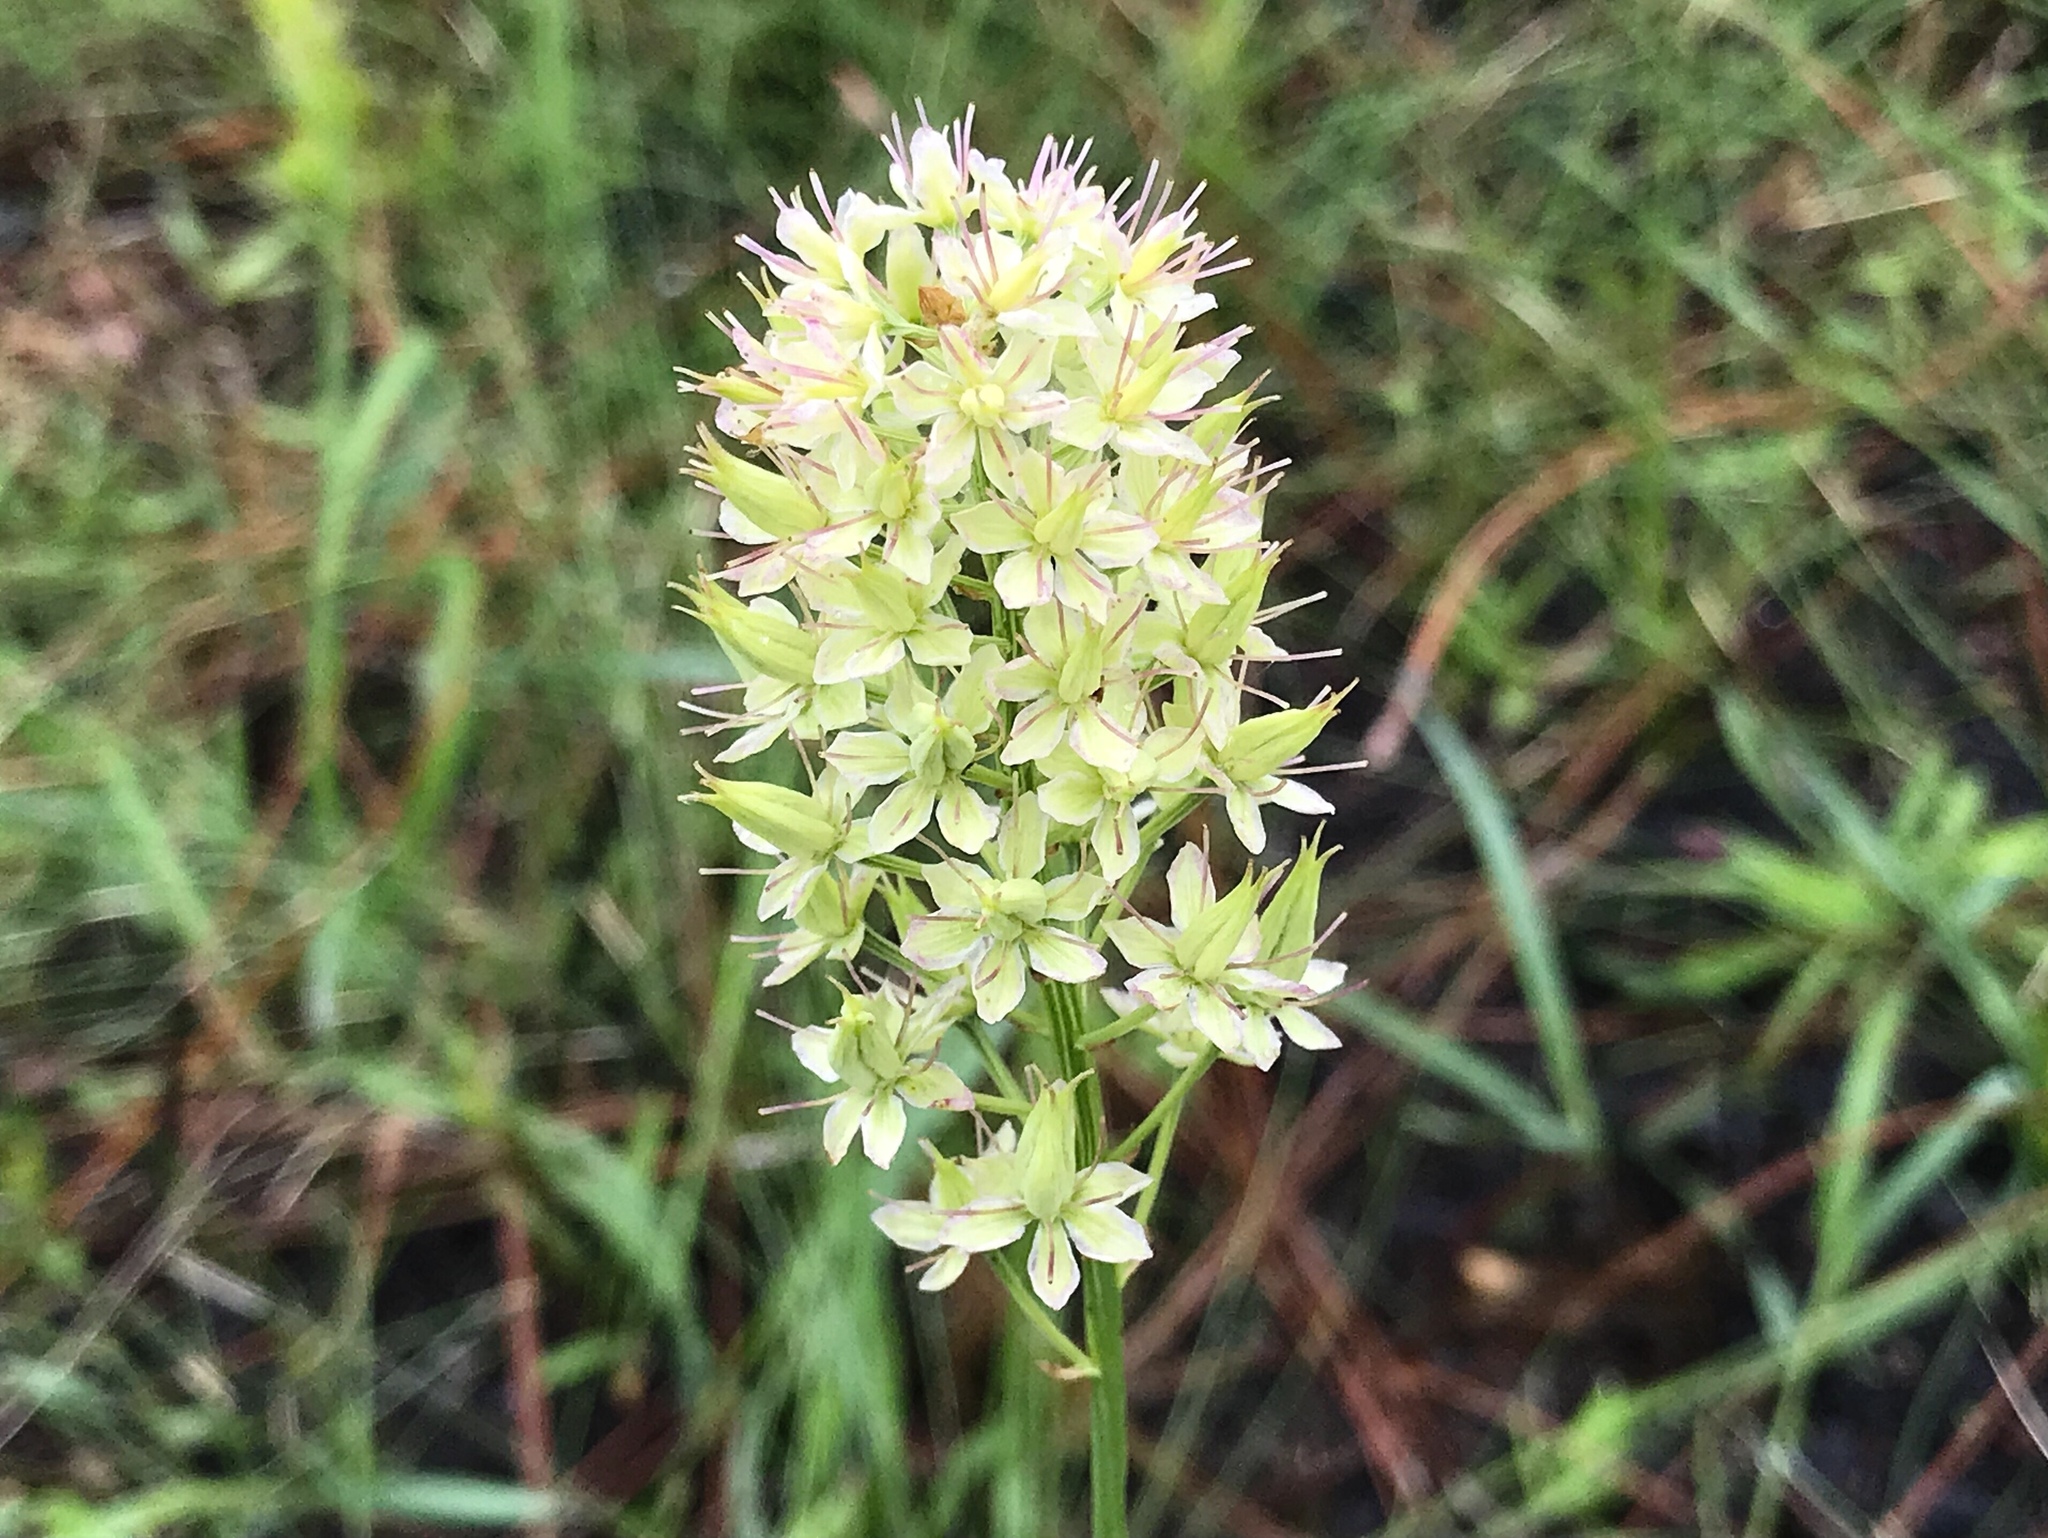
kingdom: Plantae
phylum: Tracheophyta
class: Liliopsida
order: Liliales
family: Melanthiaceae
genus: Stenanthium
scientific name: Stenanthium densum
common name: Crow-poison
